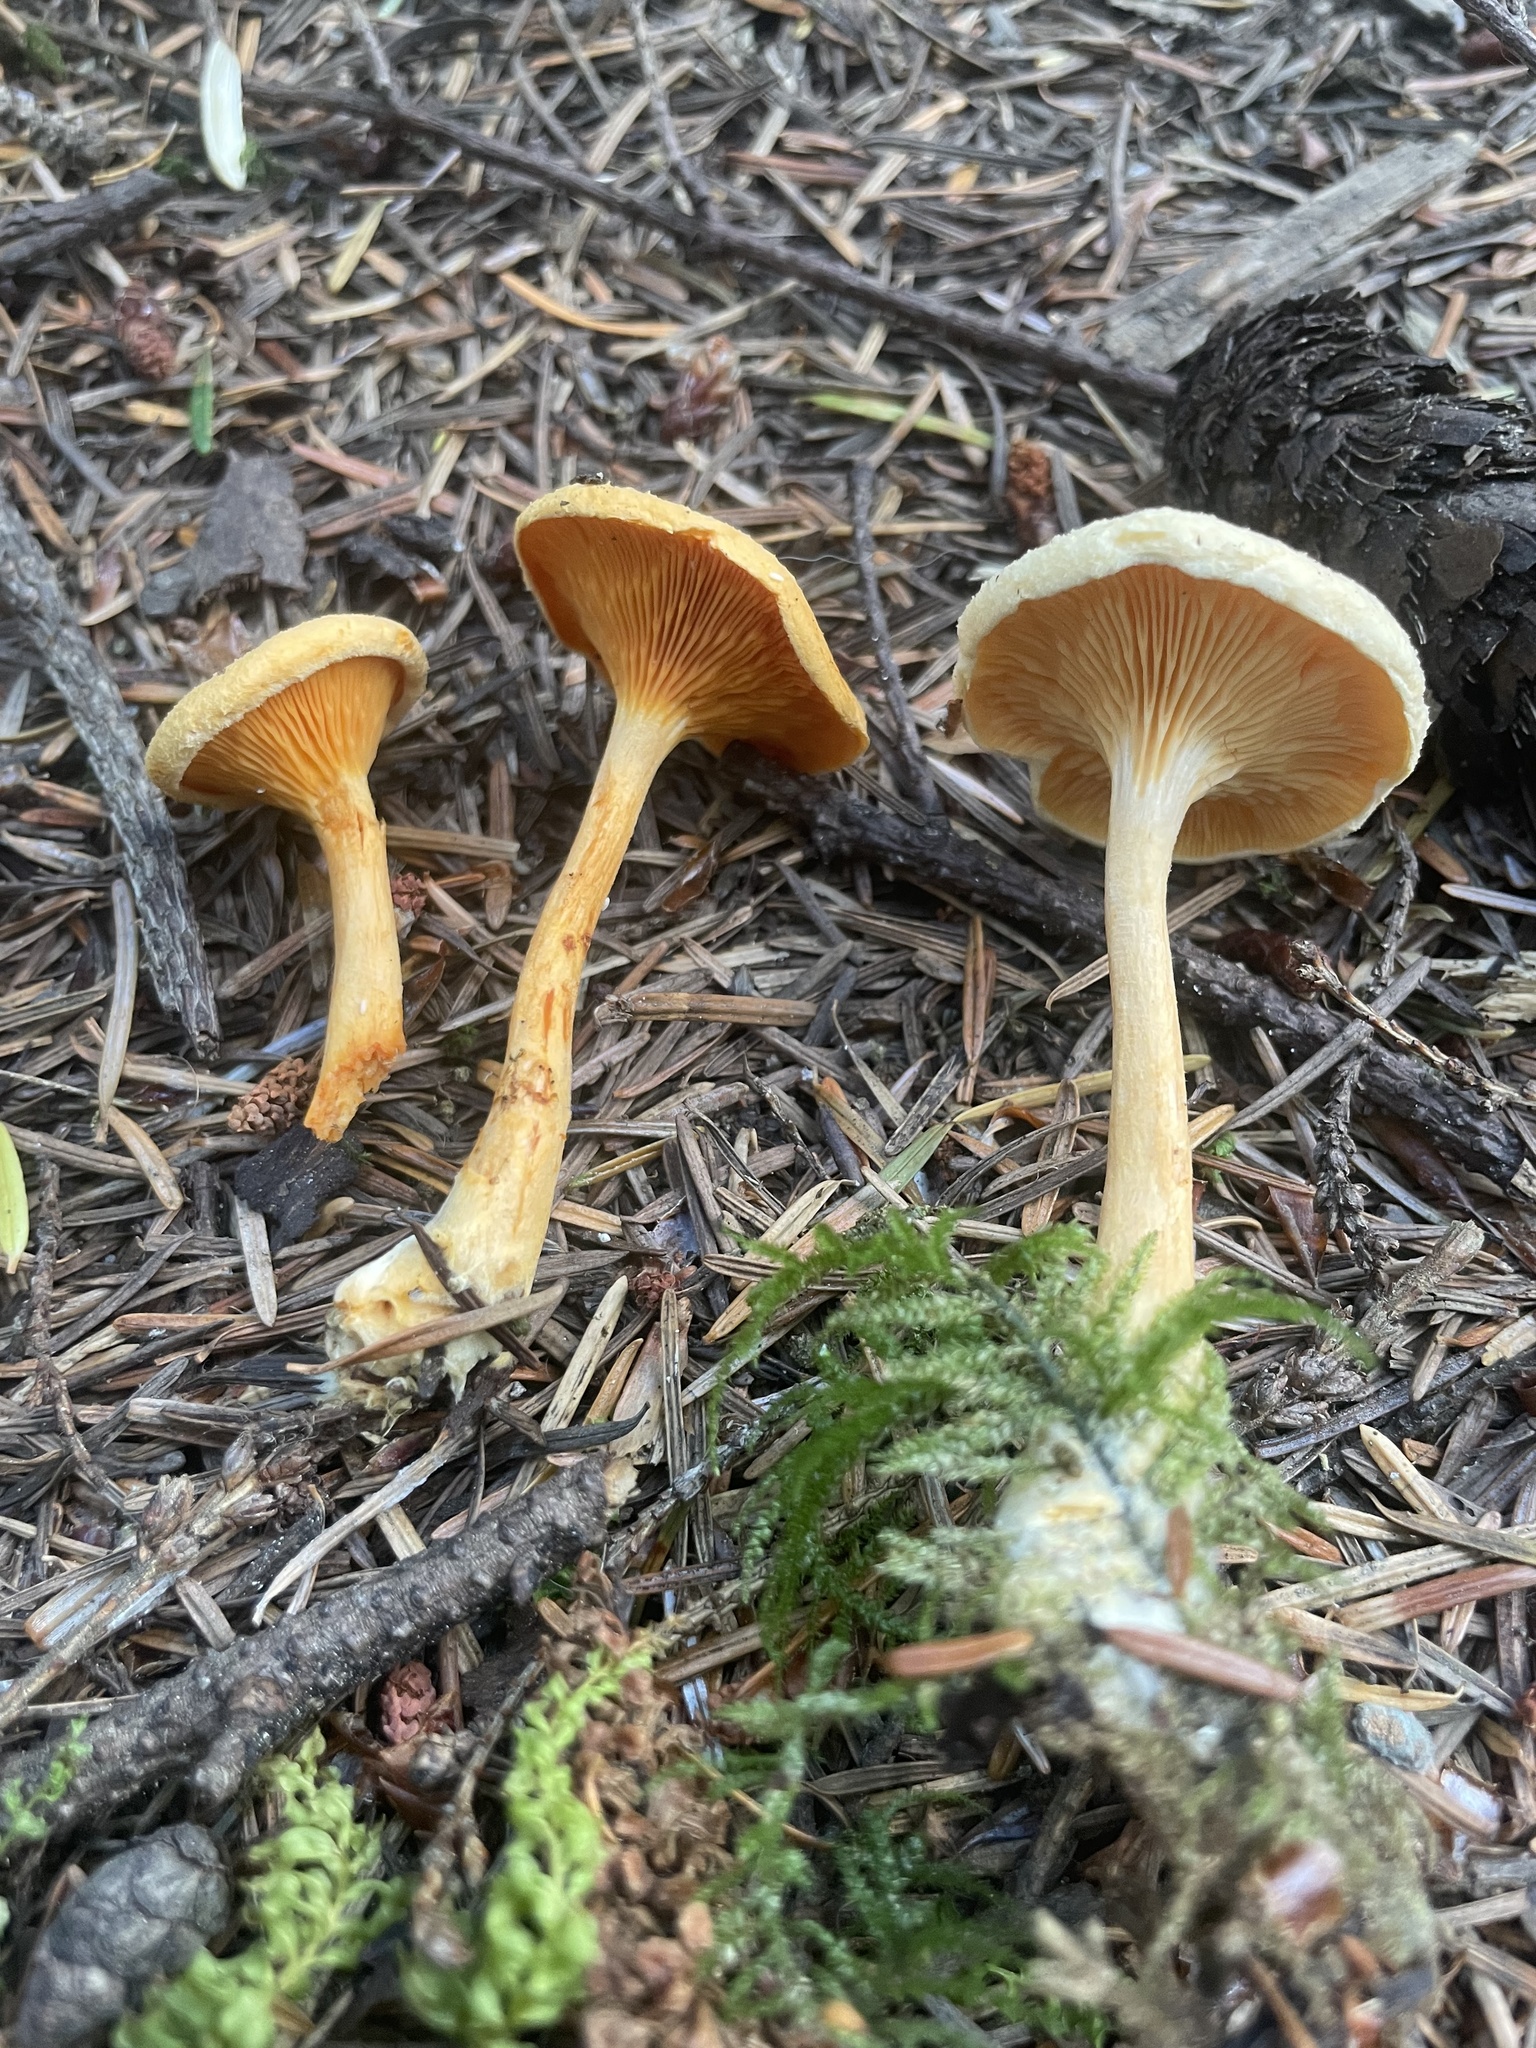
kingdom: Fungi
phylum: Basidiomycota
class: Agaricomycetes
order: Boletales
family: Hygrophoropsidaceae
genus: Hygrophoropsis
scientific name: Hygrophoropsis aurantiaca
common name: False chanterelle
